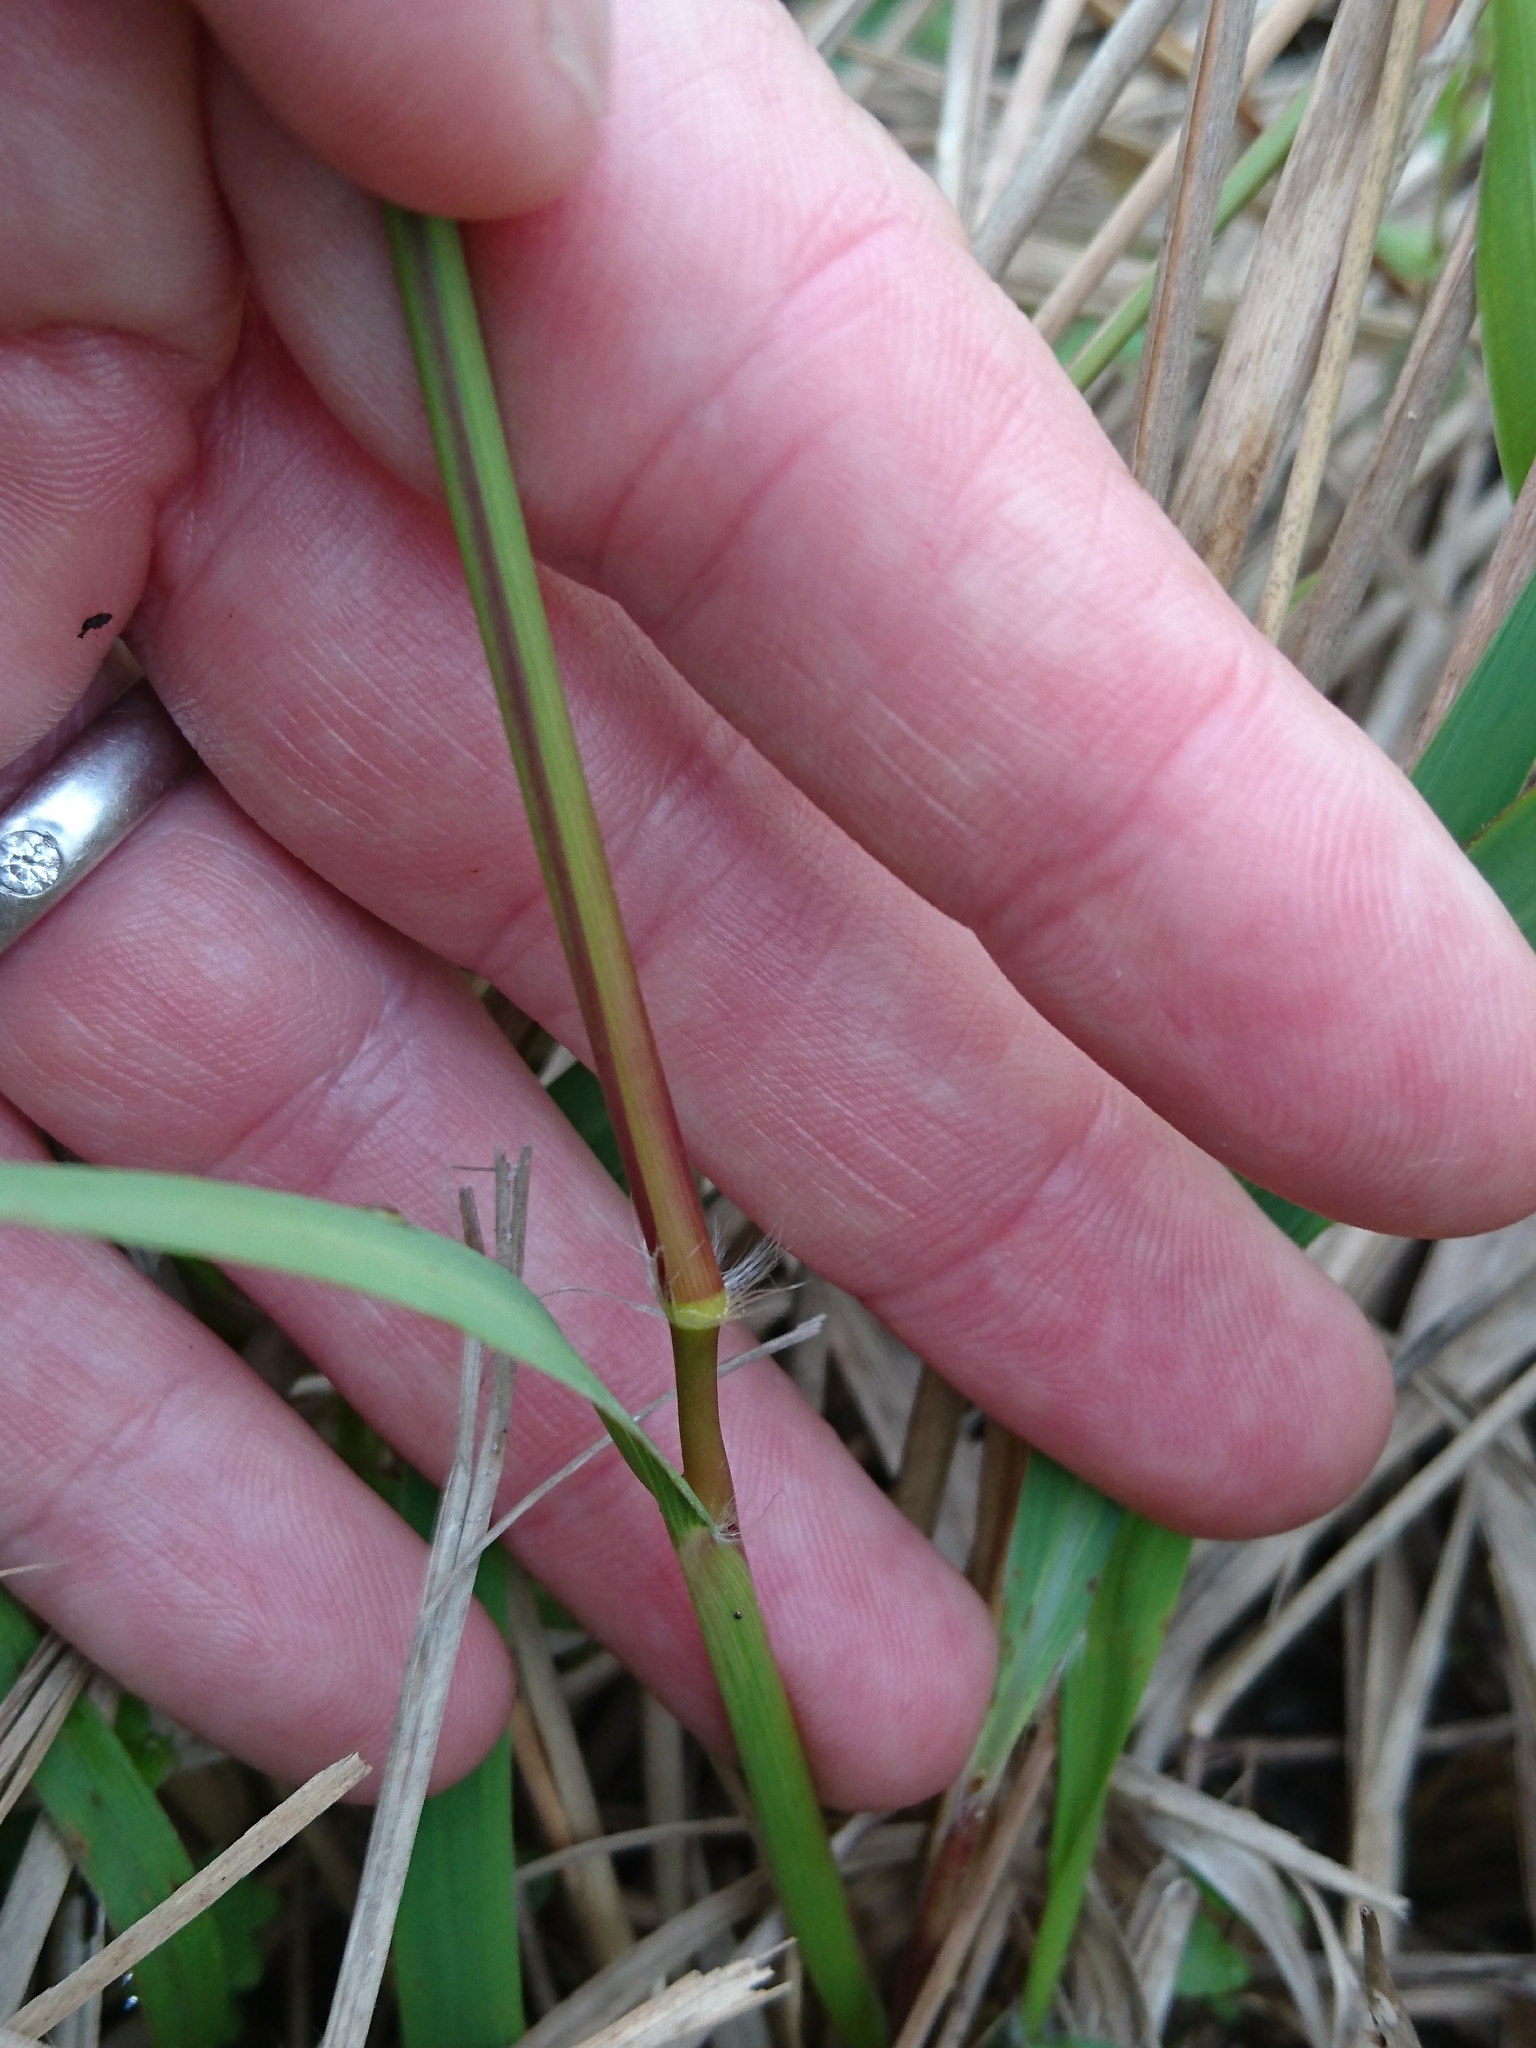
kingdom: Plantae
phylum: Tracheophyta
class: Liliopsida
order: Poales
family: Poaceae
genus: Imperata
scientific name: Imperata cylindrica
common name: Cogongrass
